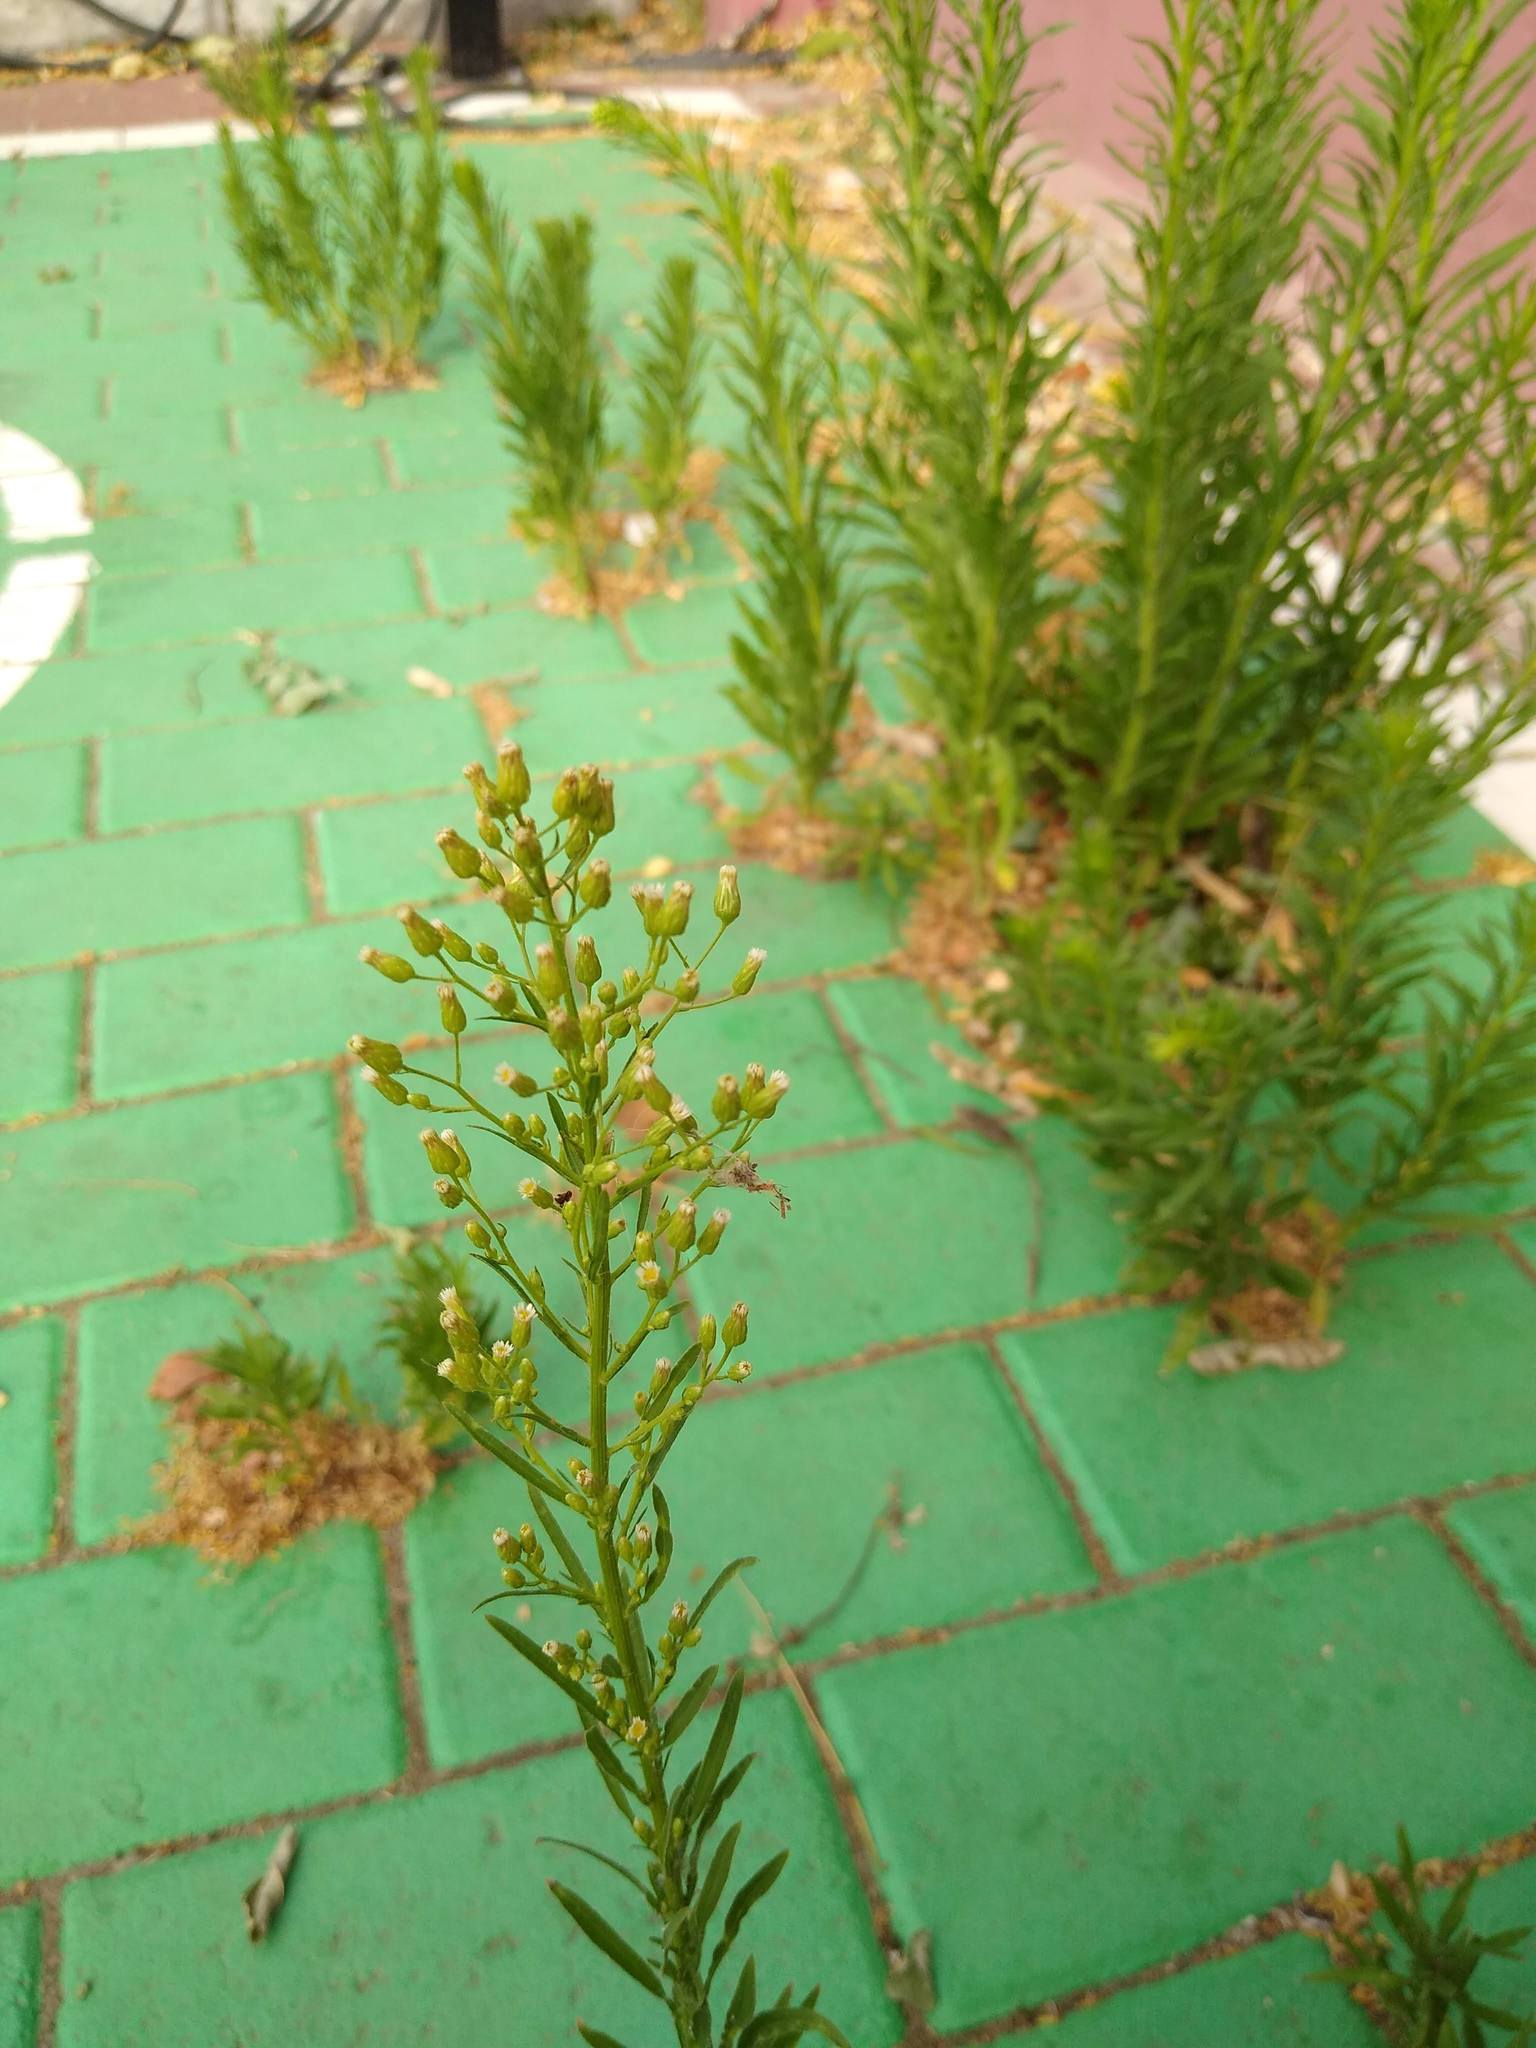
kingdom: Plantae
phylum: Tracheophyta
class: Magnoliopsida
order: Asterales
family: Asteraceae
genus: Erigeron
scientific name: Erigeron canadensis
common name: Canadian fleabane
